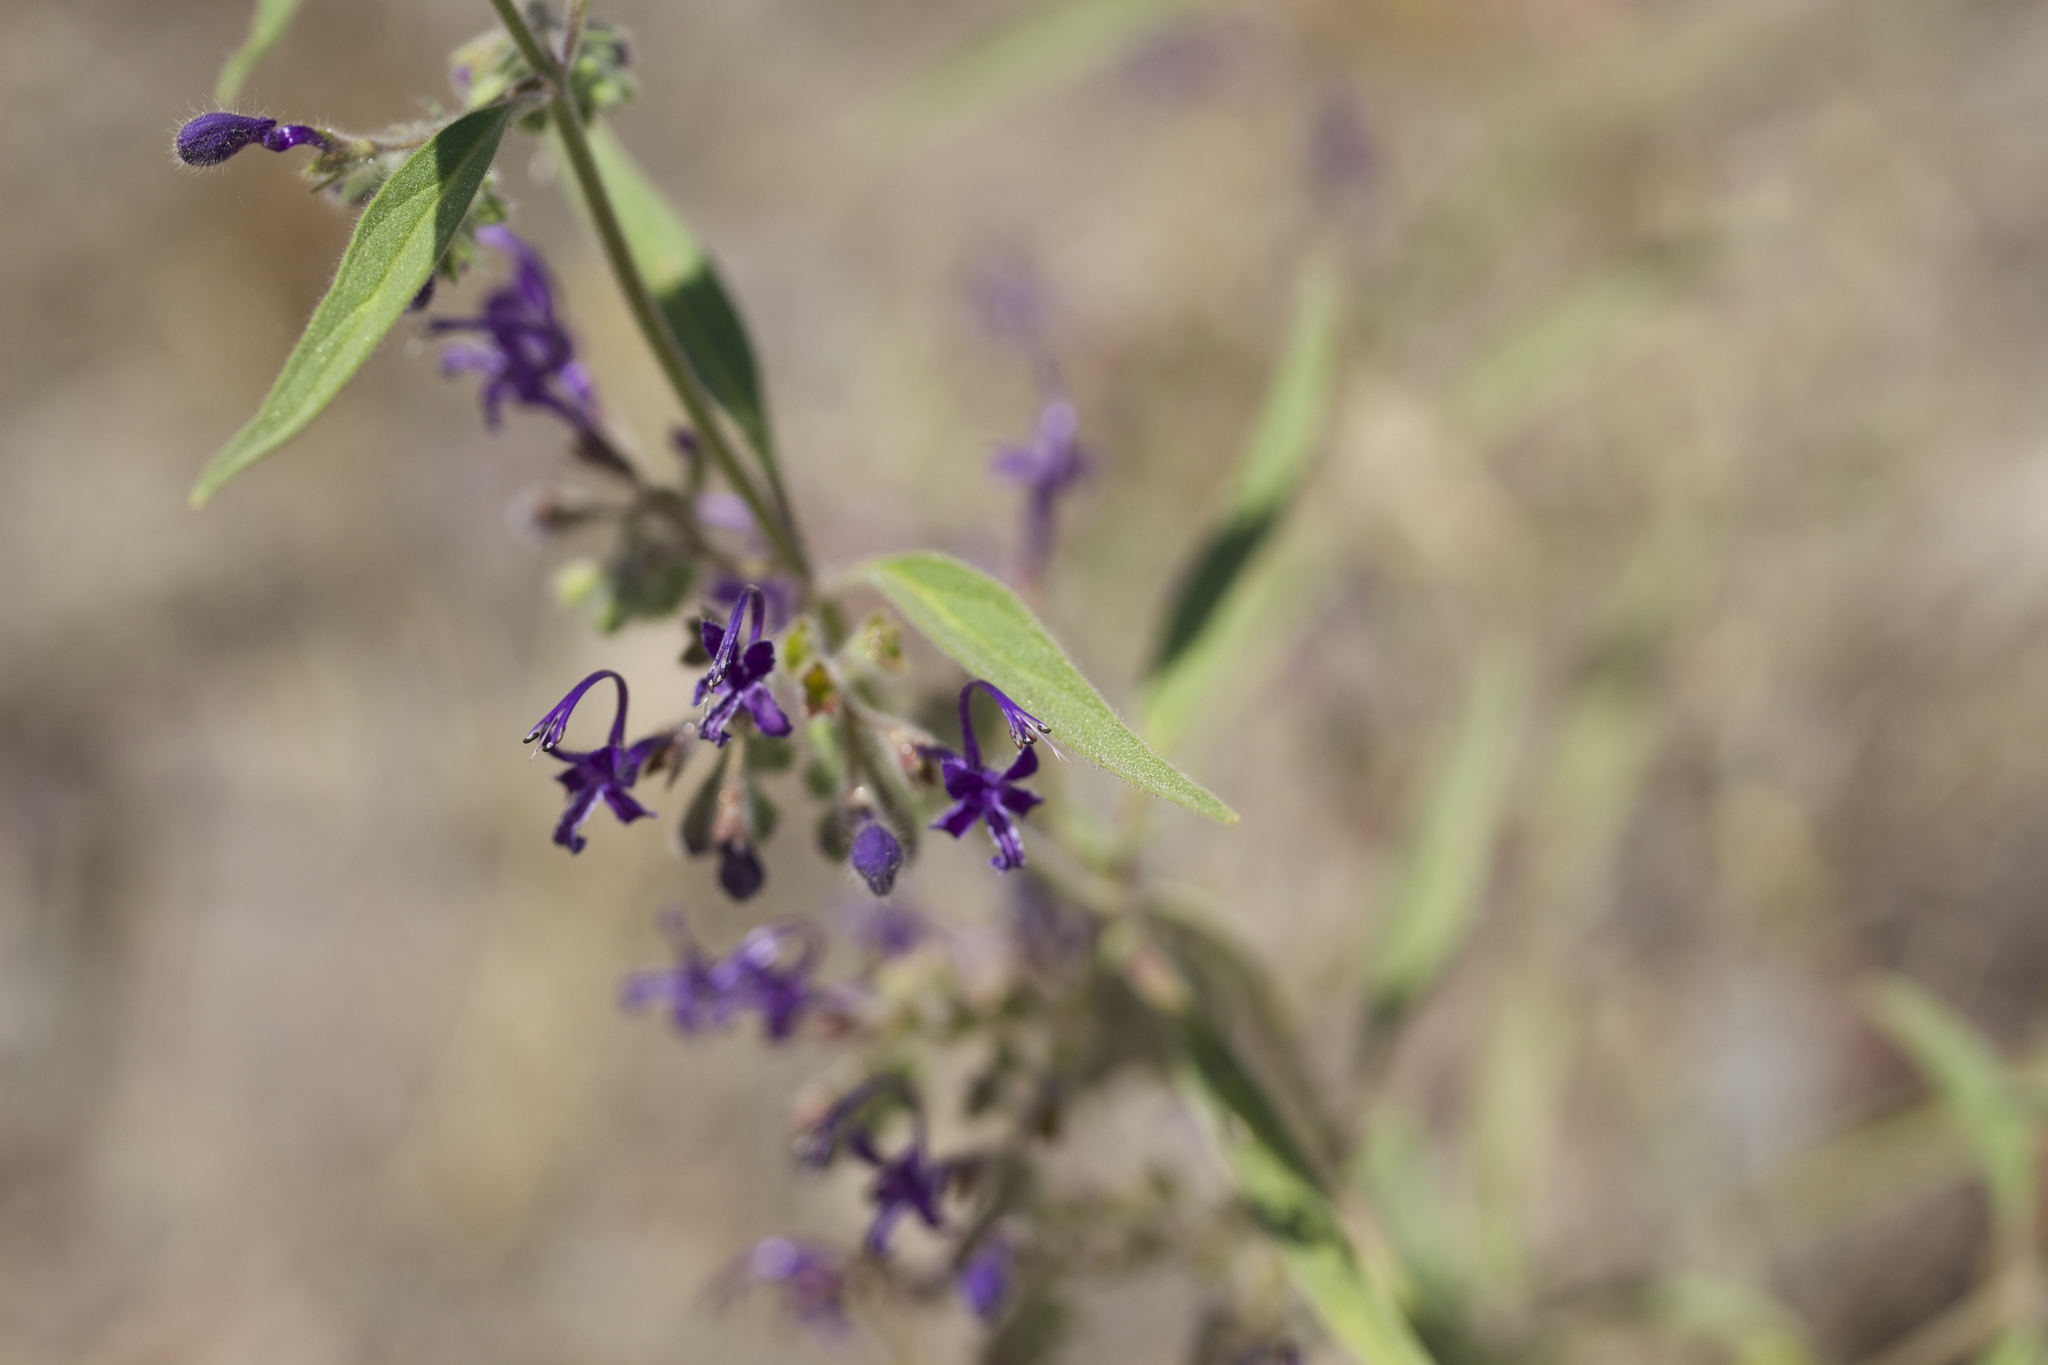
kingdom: Plantae
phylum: Tracheophyta
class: Magnoliopsida
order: Lamiales
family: Lamiaceae
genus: Trichostema
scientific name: Trichostema laxum
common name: Turpentine weed
